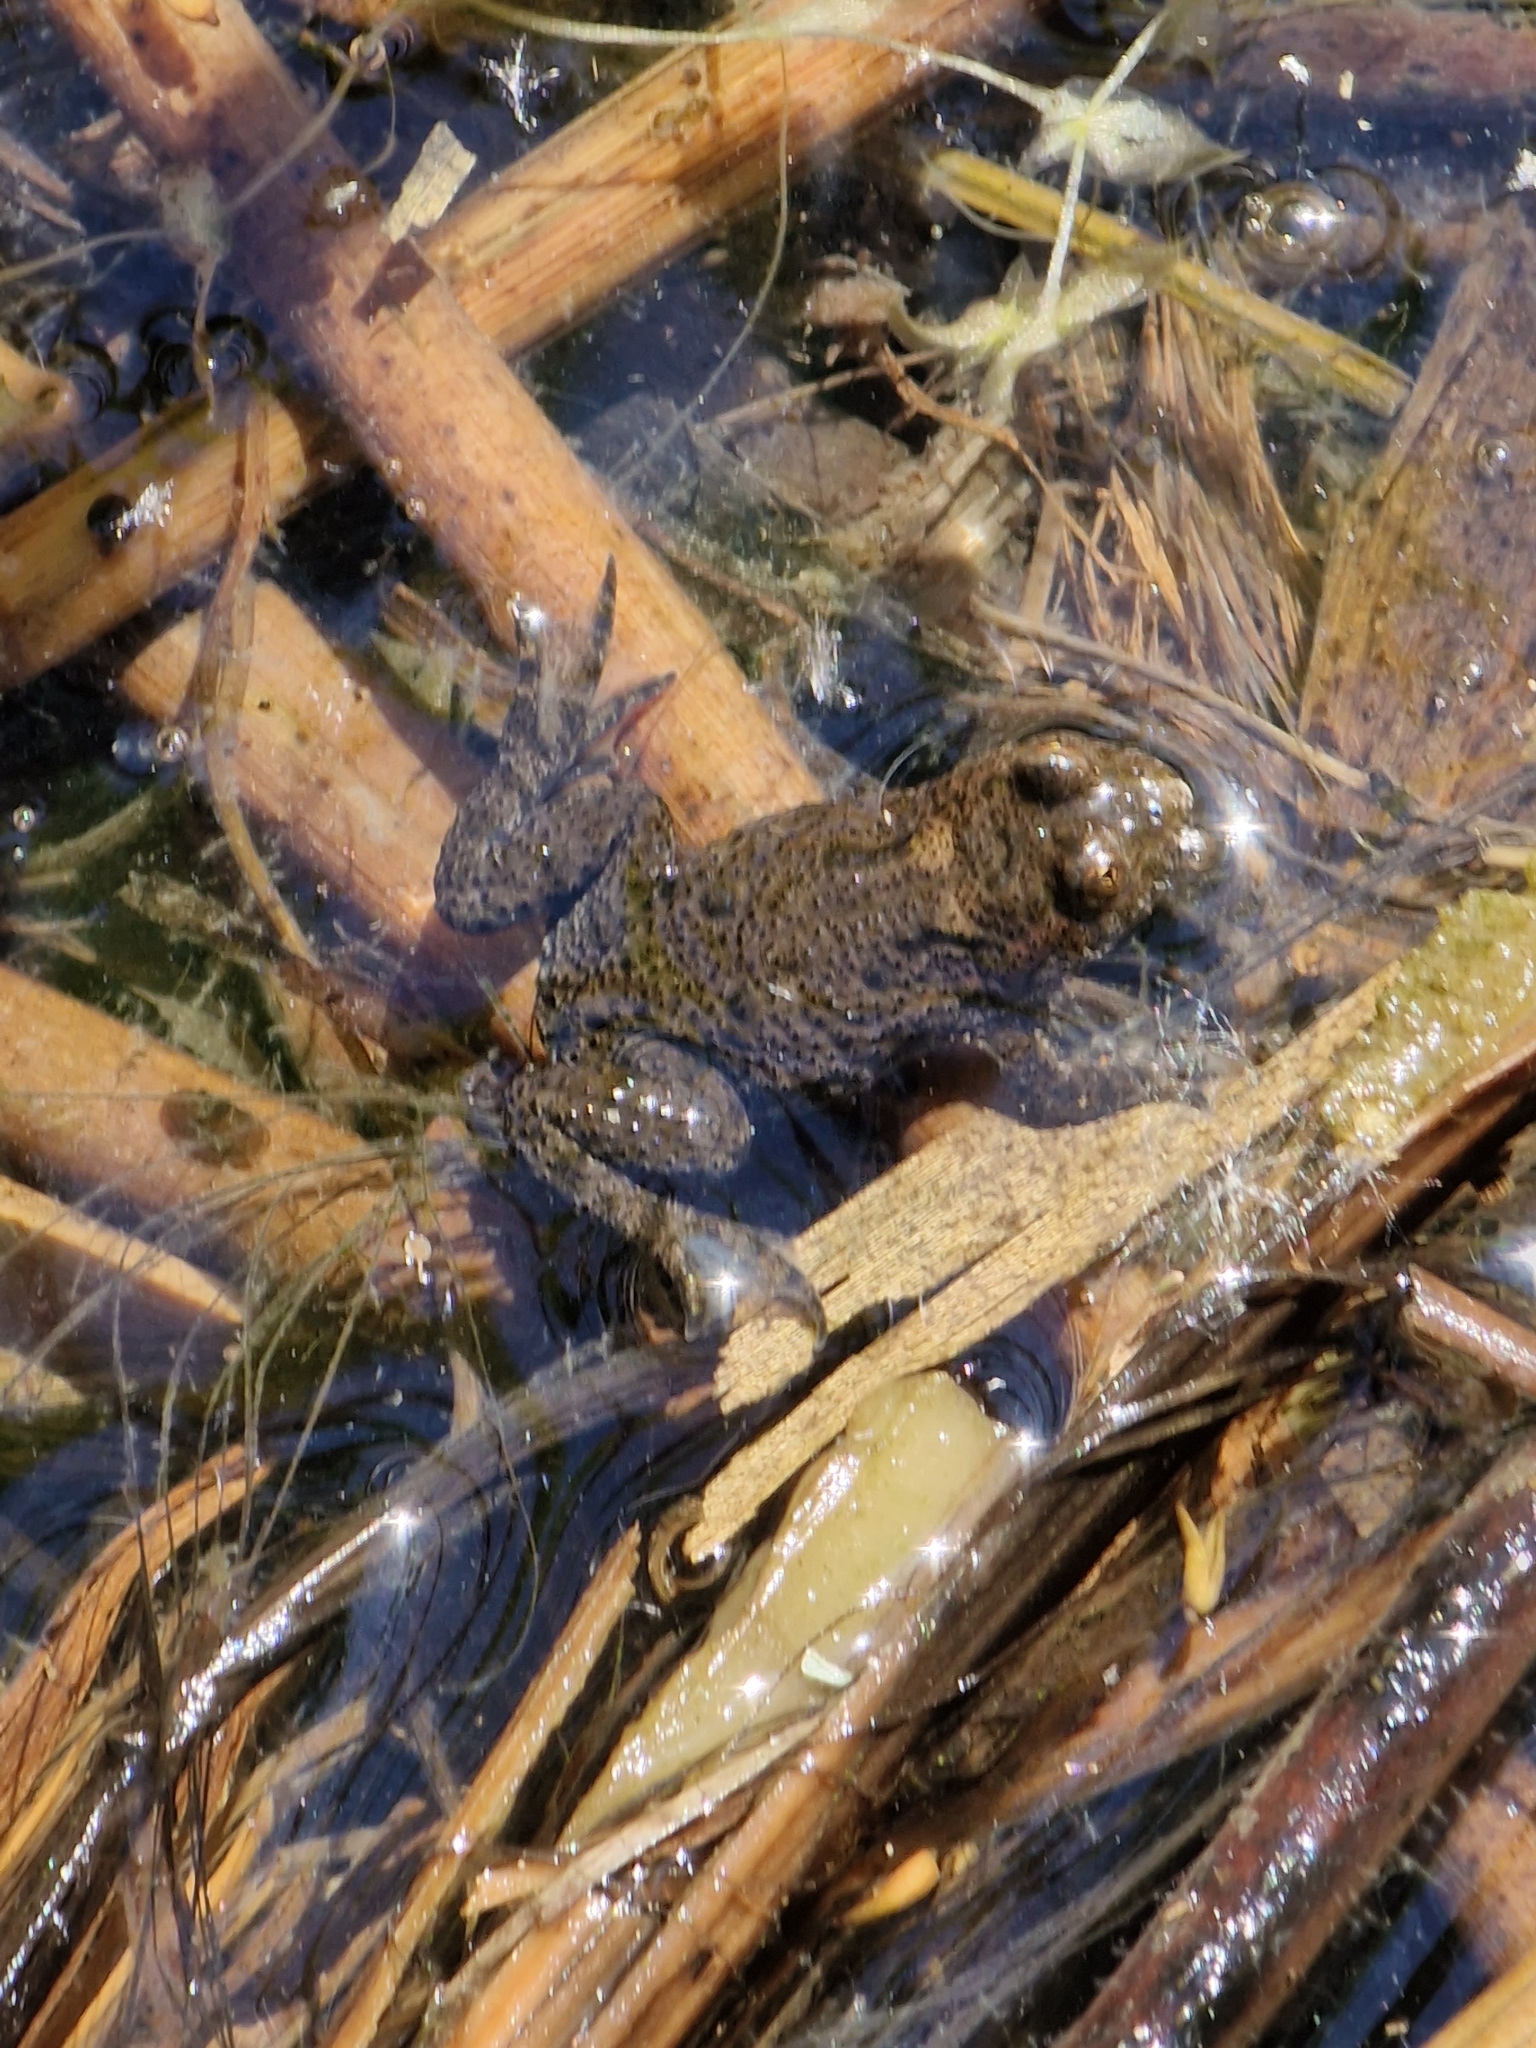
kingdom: Animalia
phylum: Chordata
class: Amphibia
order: Anura
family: Bombinatoridae
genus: Bombina
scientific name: Bombina bombina
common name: Fire-bellied toad
